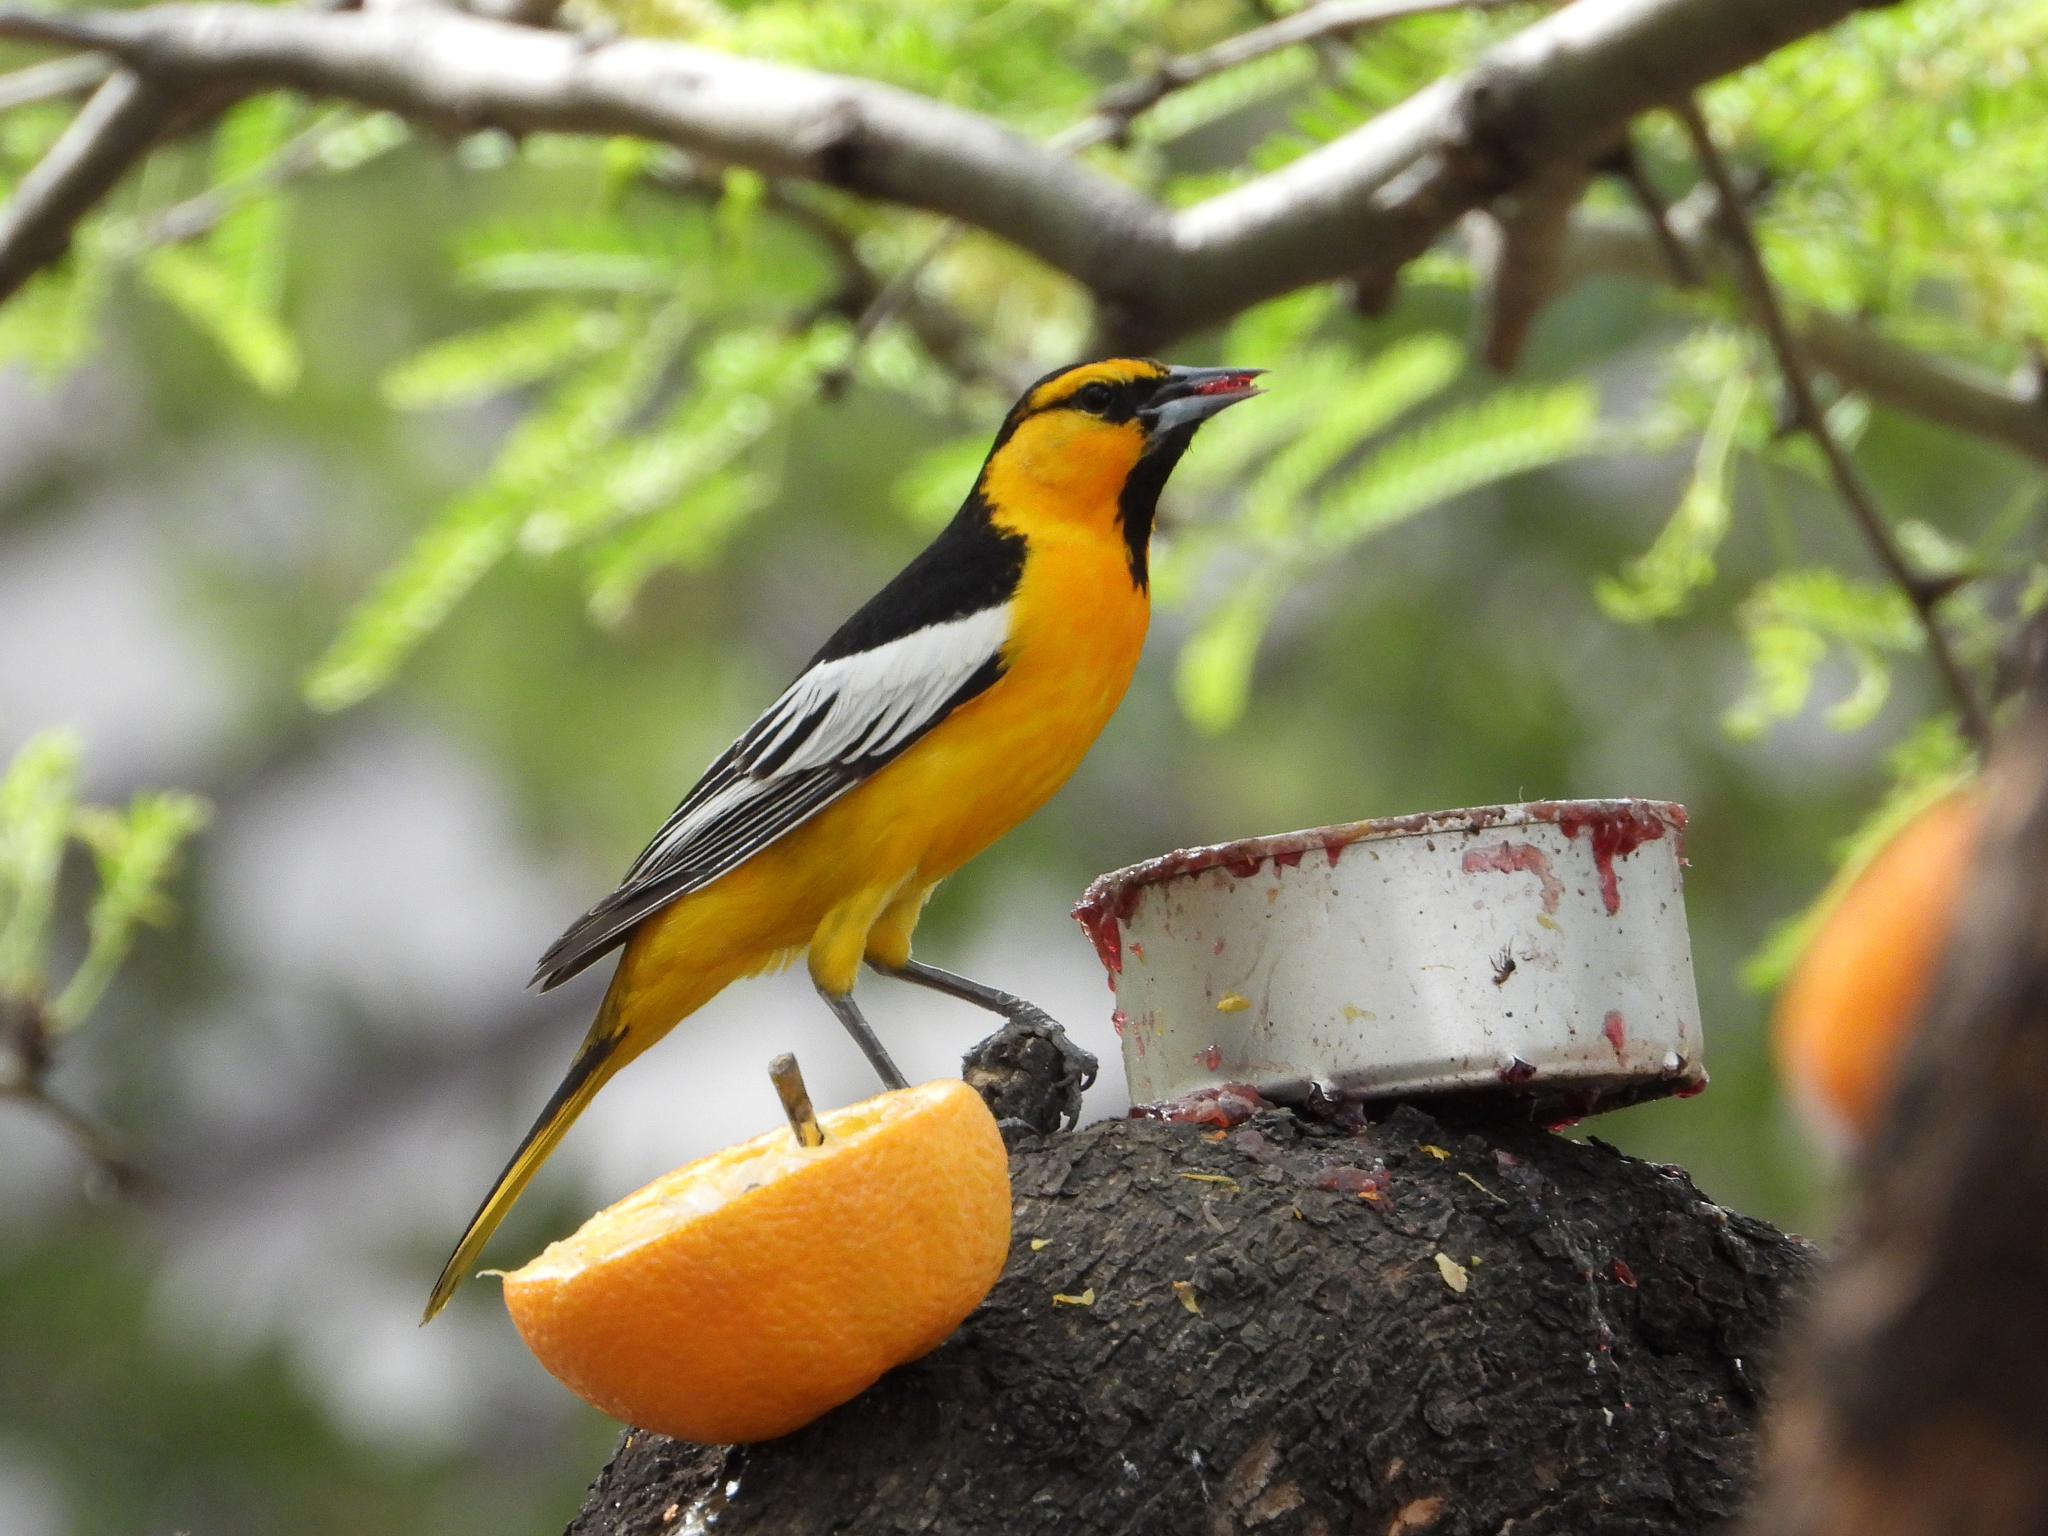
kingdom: Animalia
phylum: Chordata
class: Aves
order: Passeriformes
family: Icteridae
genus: Icterus
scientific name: Icterus bullockii
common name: Bullock's oriole
